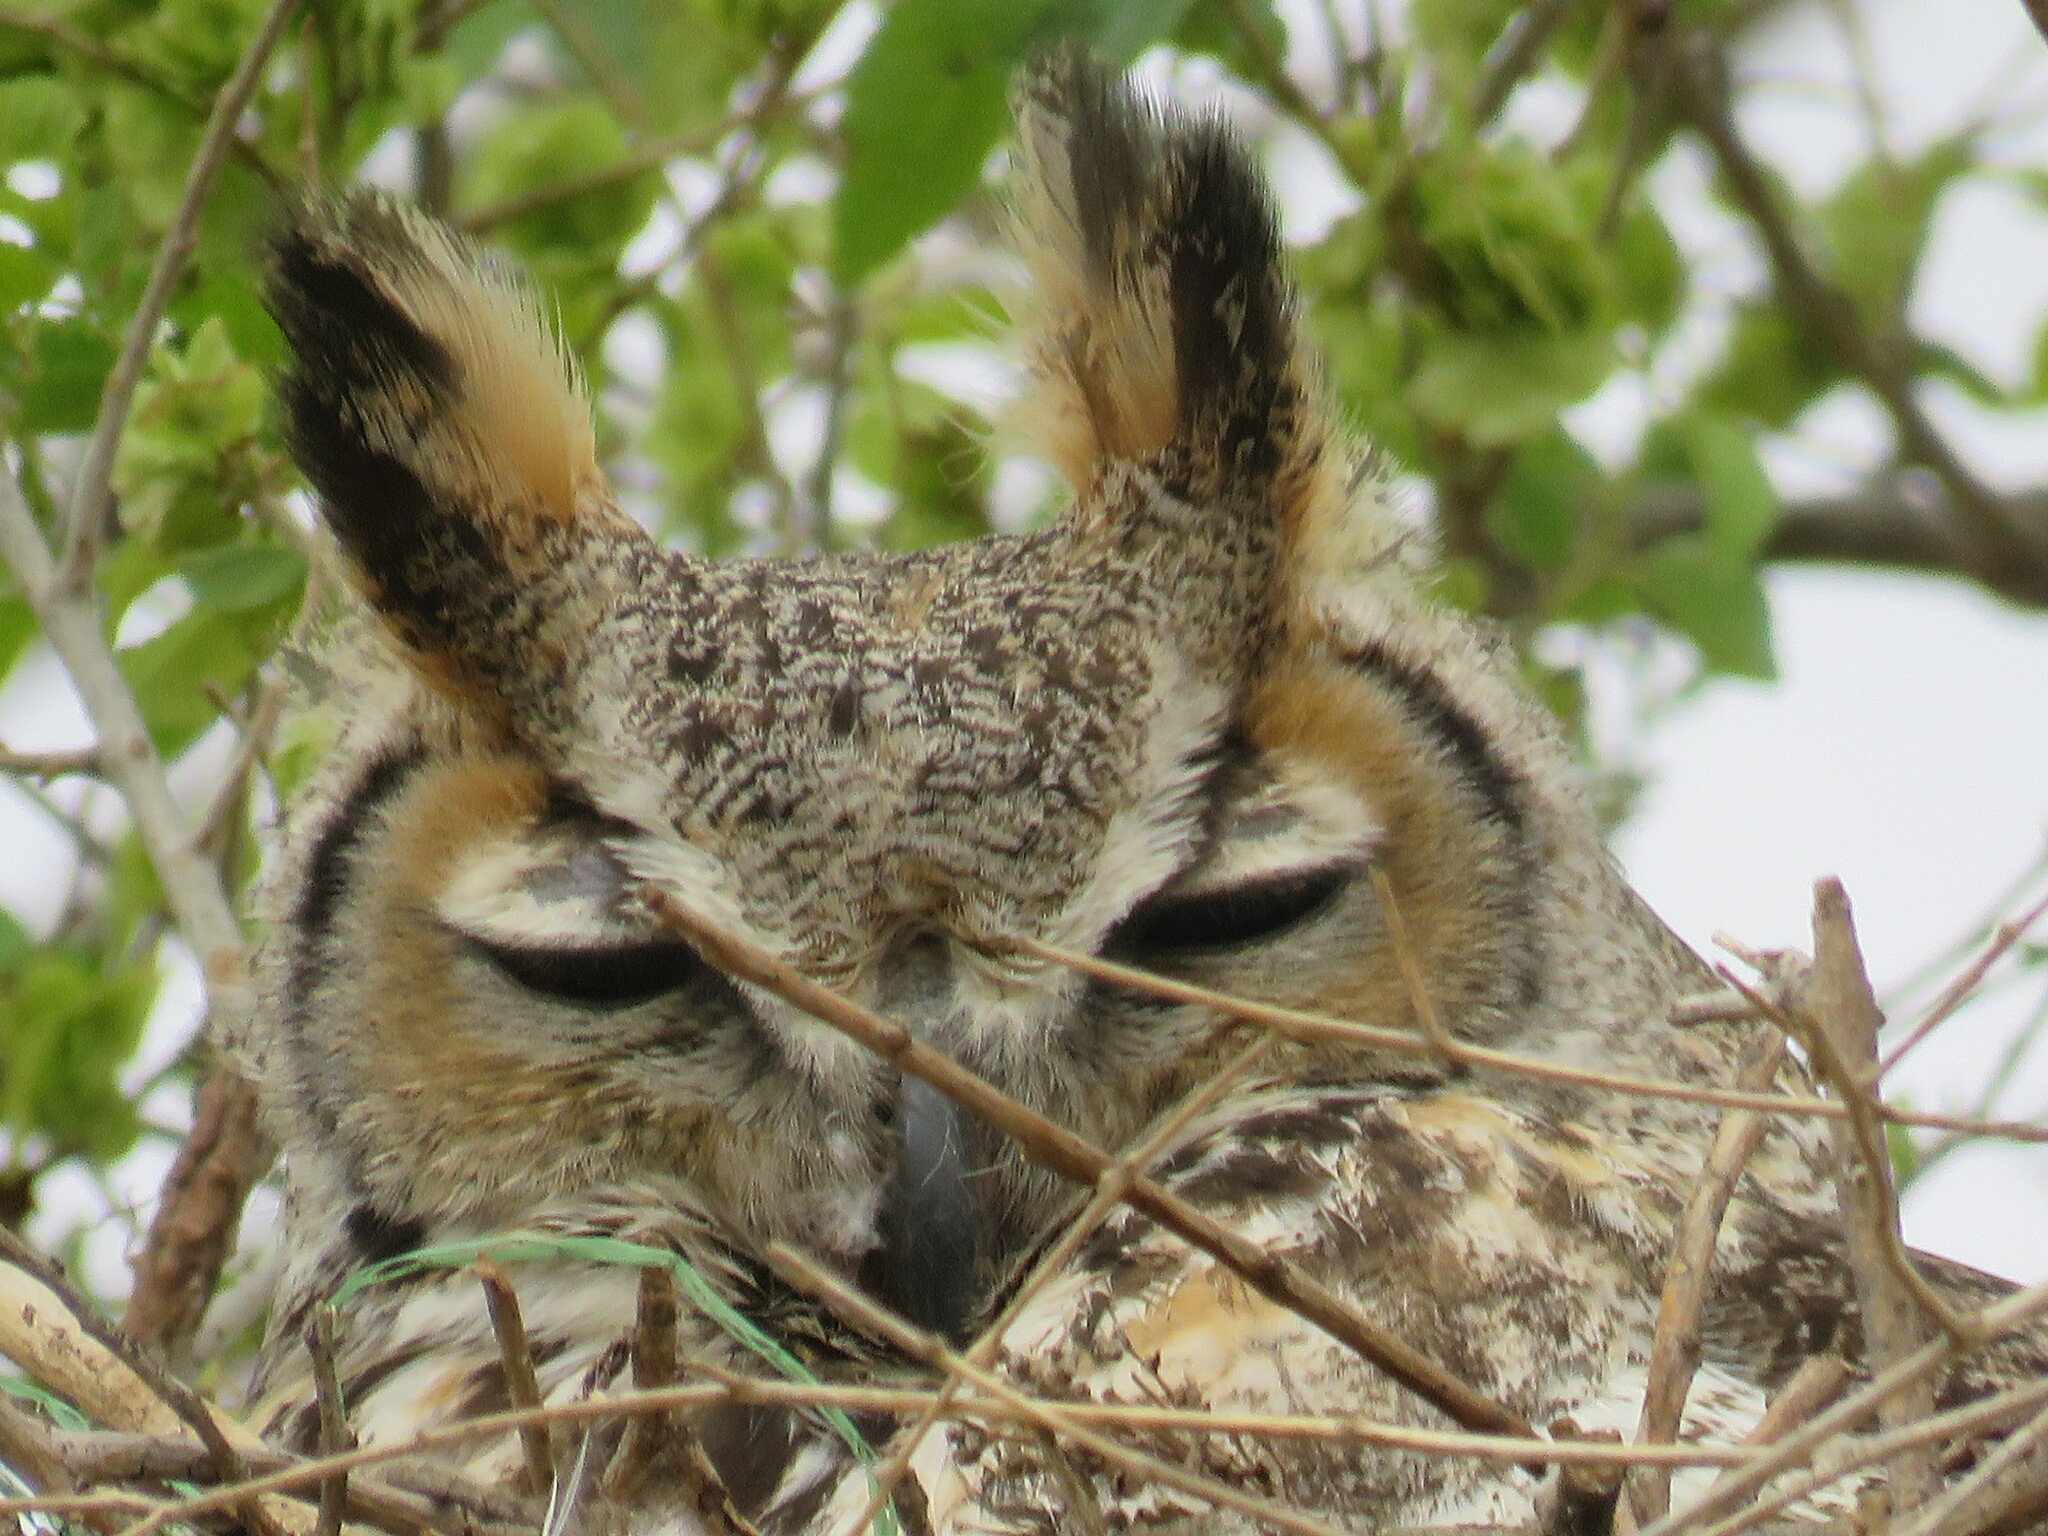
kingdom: Animalia
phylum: Chordata
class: Aves
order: Strigiformes
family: Strigidae
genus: Bubo
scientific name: Bubo virginianus
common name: Great horned owl
